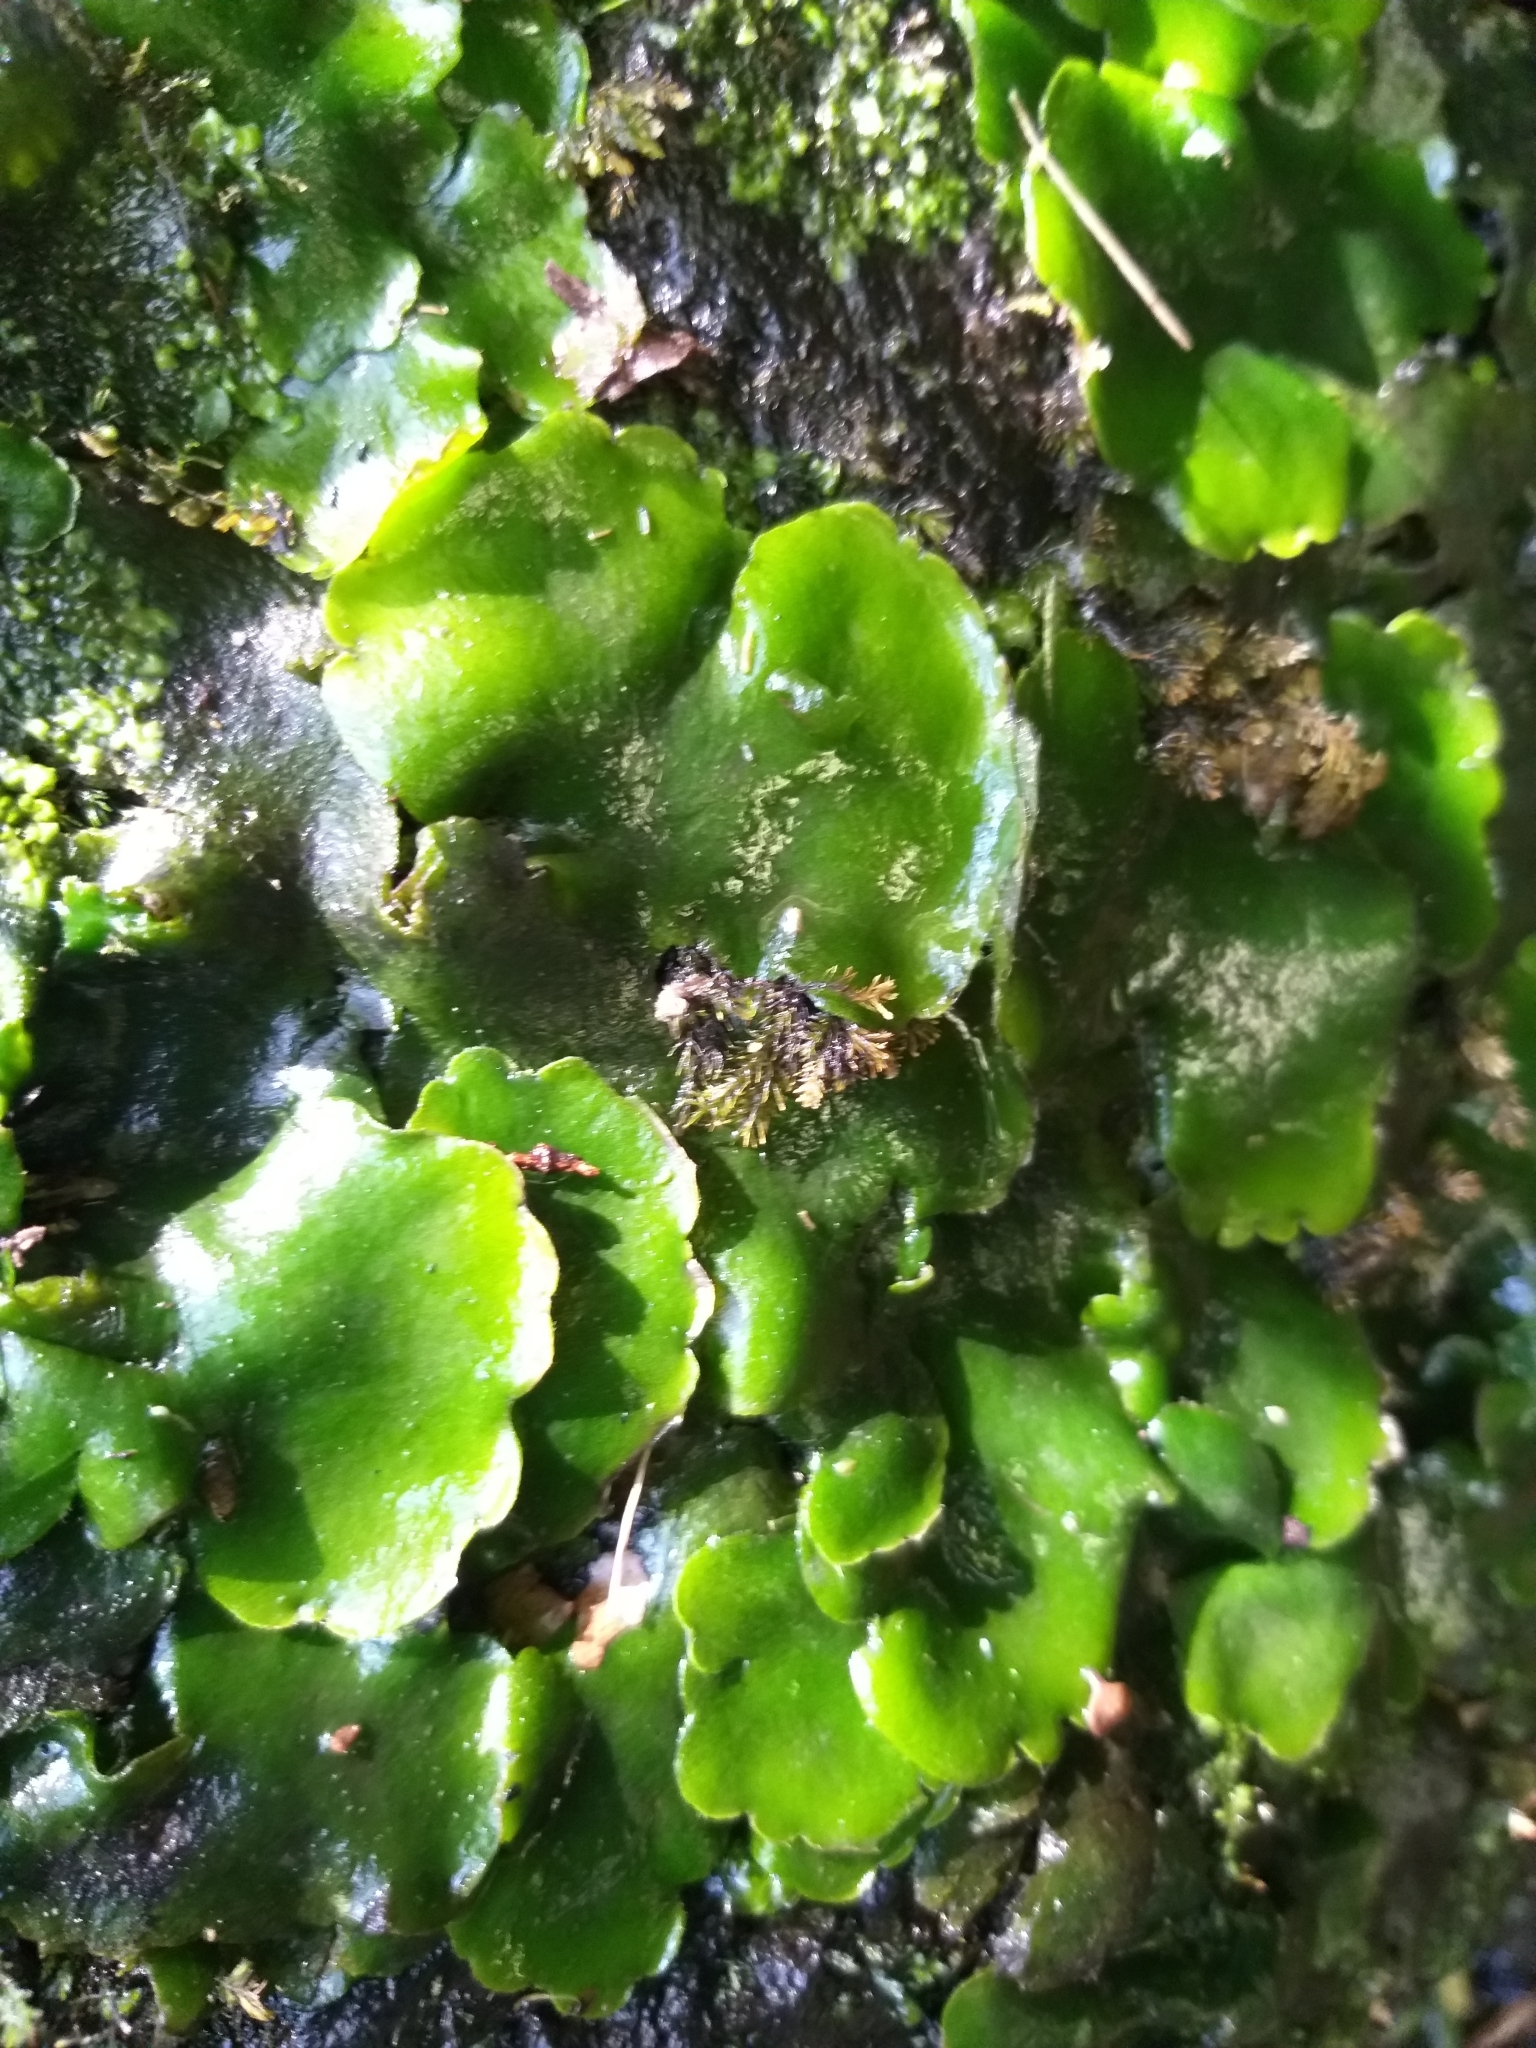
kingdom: Plantae
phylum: Marchantiophyta
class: Marchantiopsida
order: Marchantiales
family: Monocleaceae
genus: Monoclea
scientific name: Monoclea forsteri
